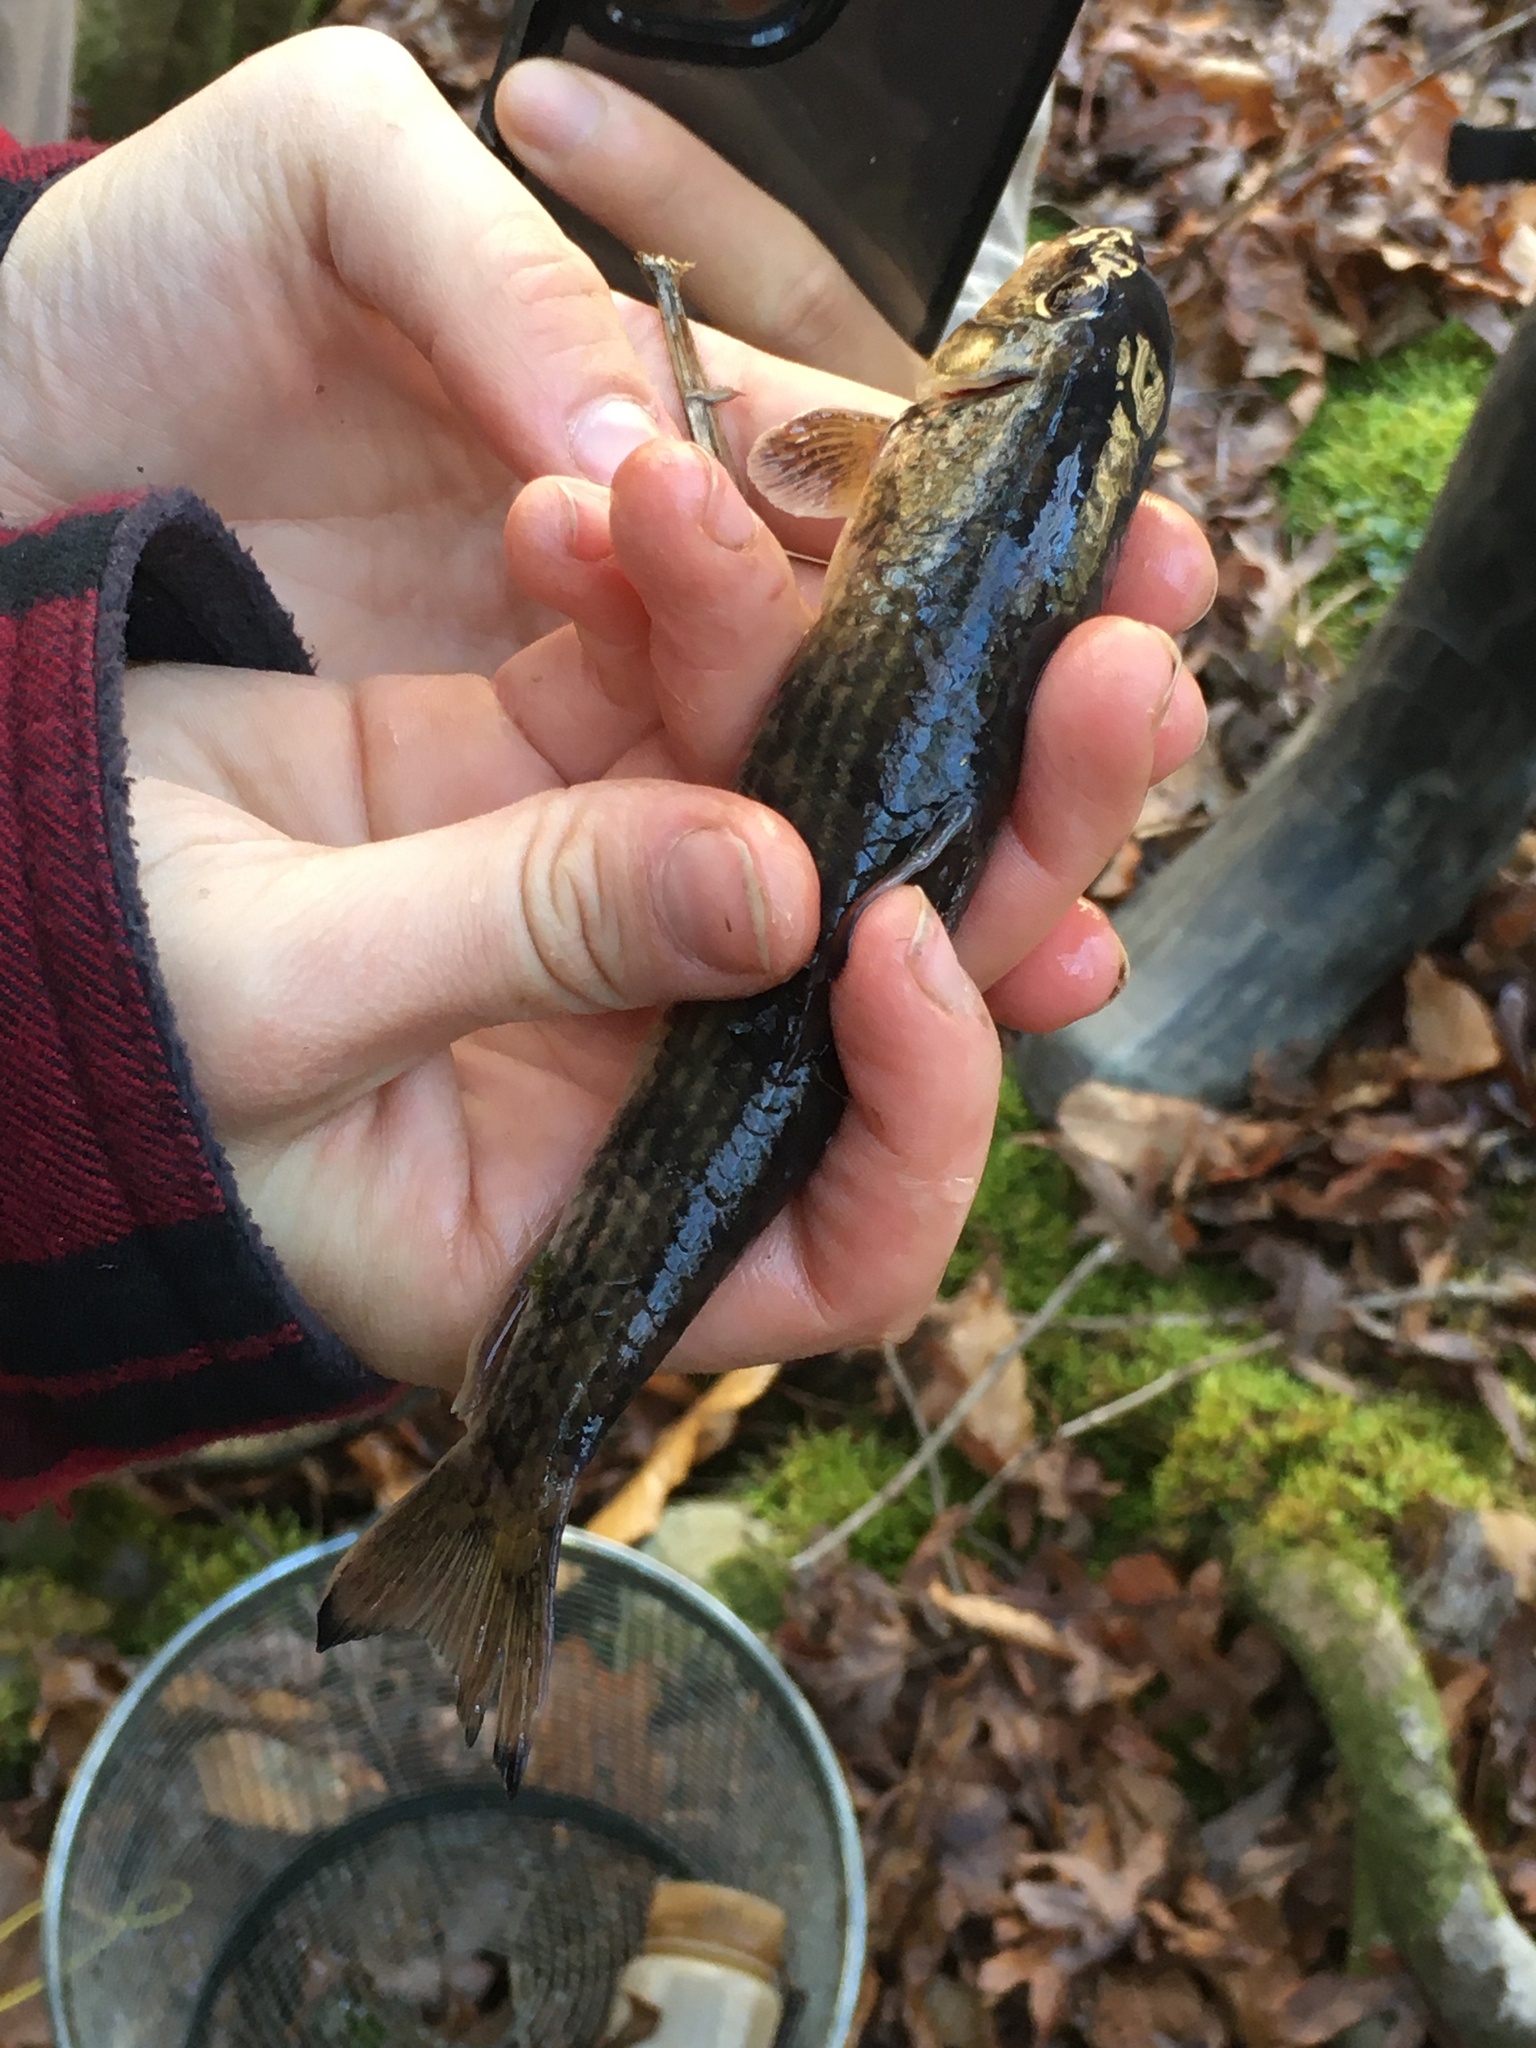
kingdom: Animalia
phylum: Chordata
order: Cypriniformes
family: Catostomidae
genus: Moxostoma
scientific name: Moxostoma cervinum
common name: Blacktip jumprock
